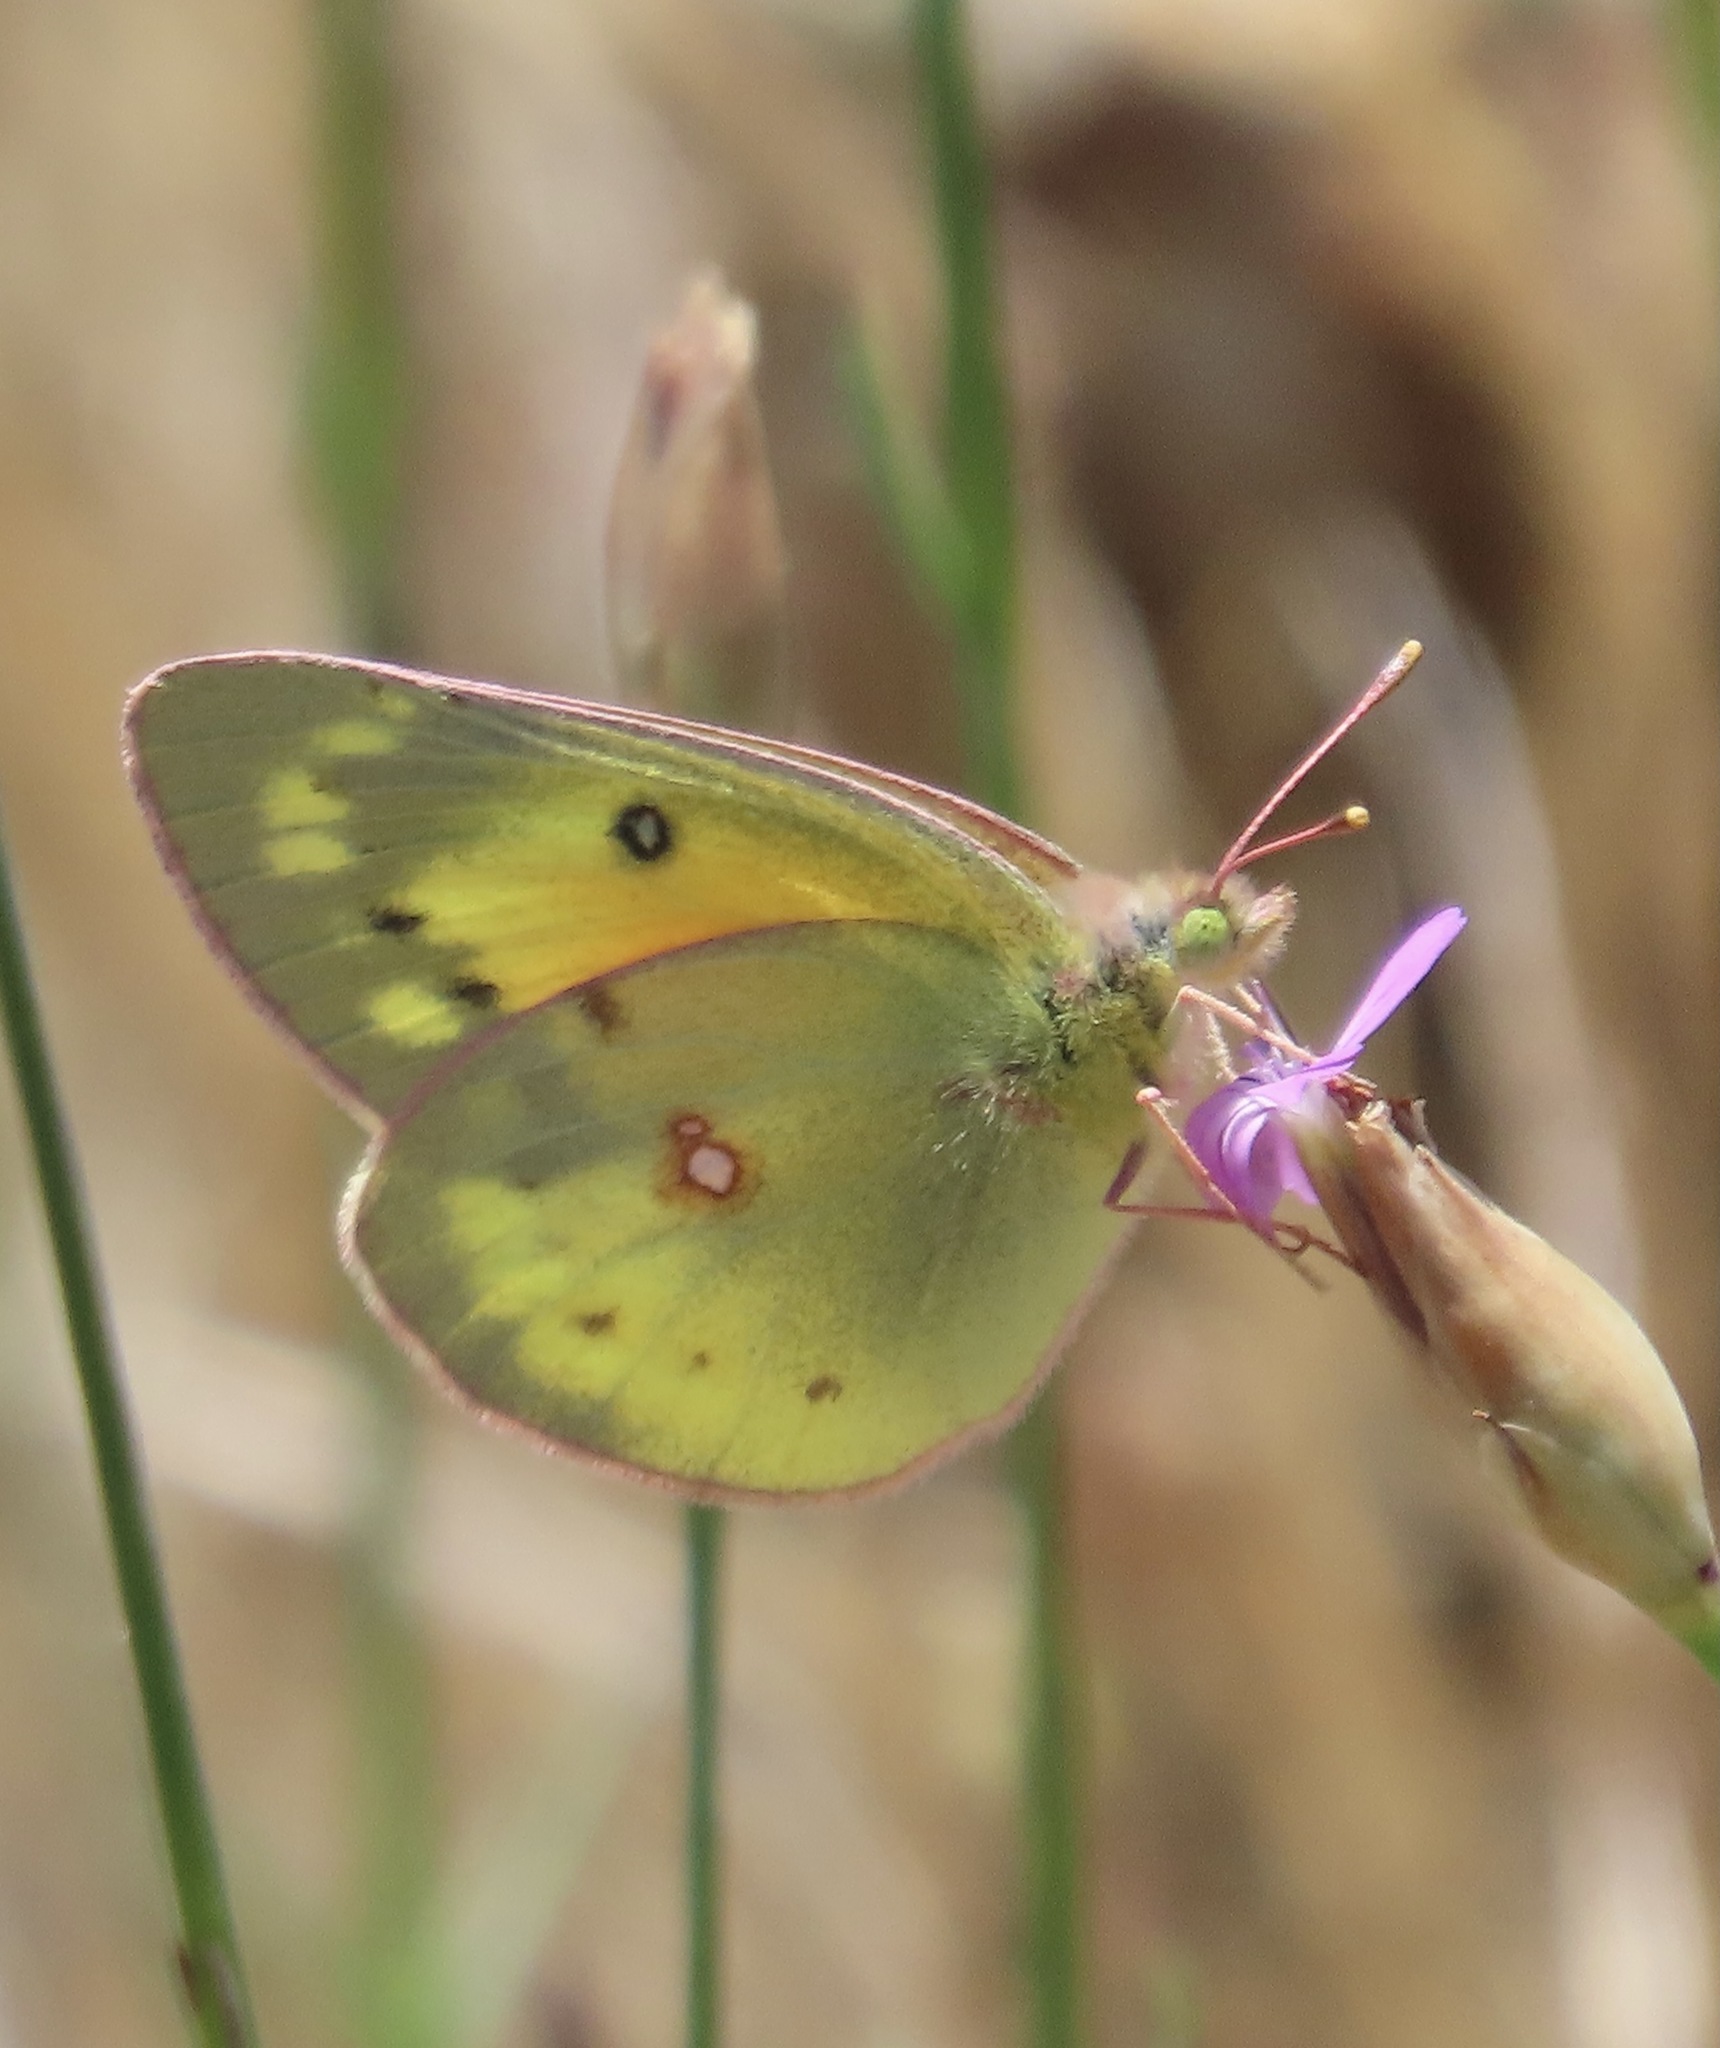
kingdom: Animalia
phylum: Arthropoda
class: Insecta
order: Lepidoptera
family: Pieridae
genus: Colias
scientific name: Colias eurytheme
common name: Alfalfa butterfly
